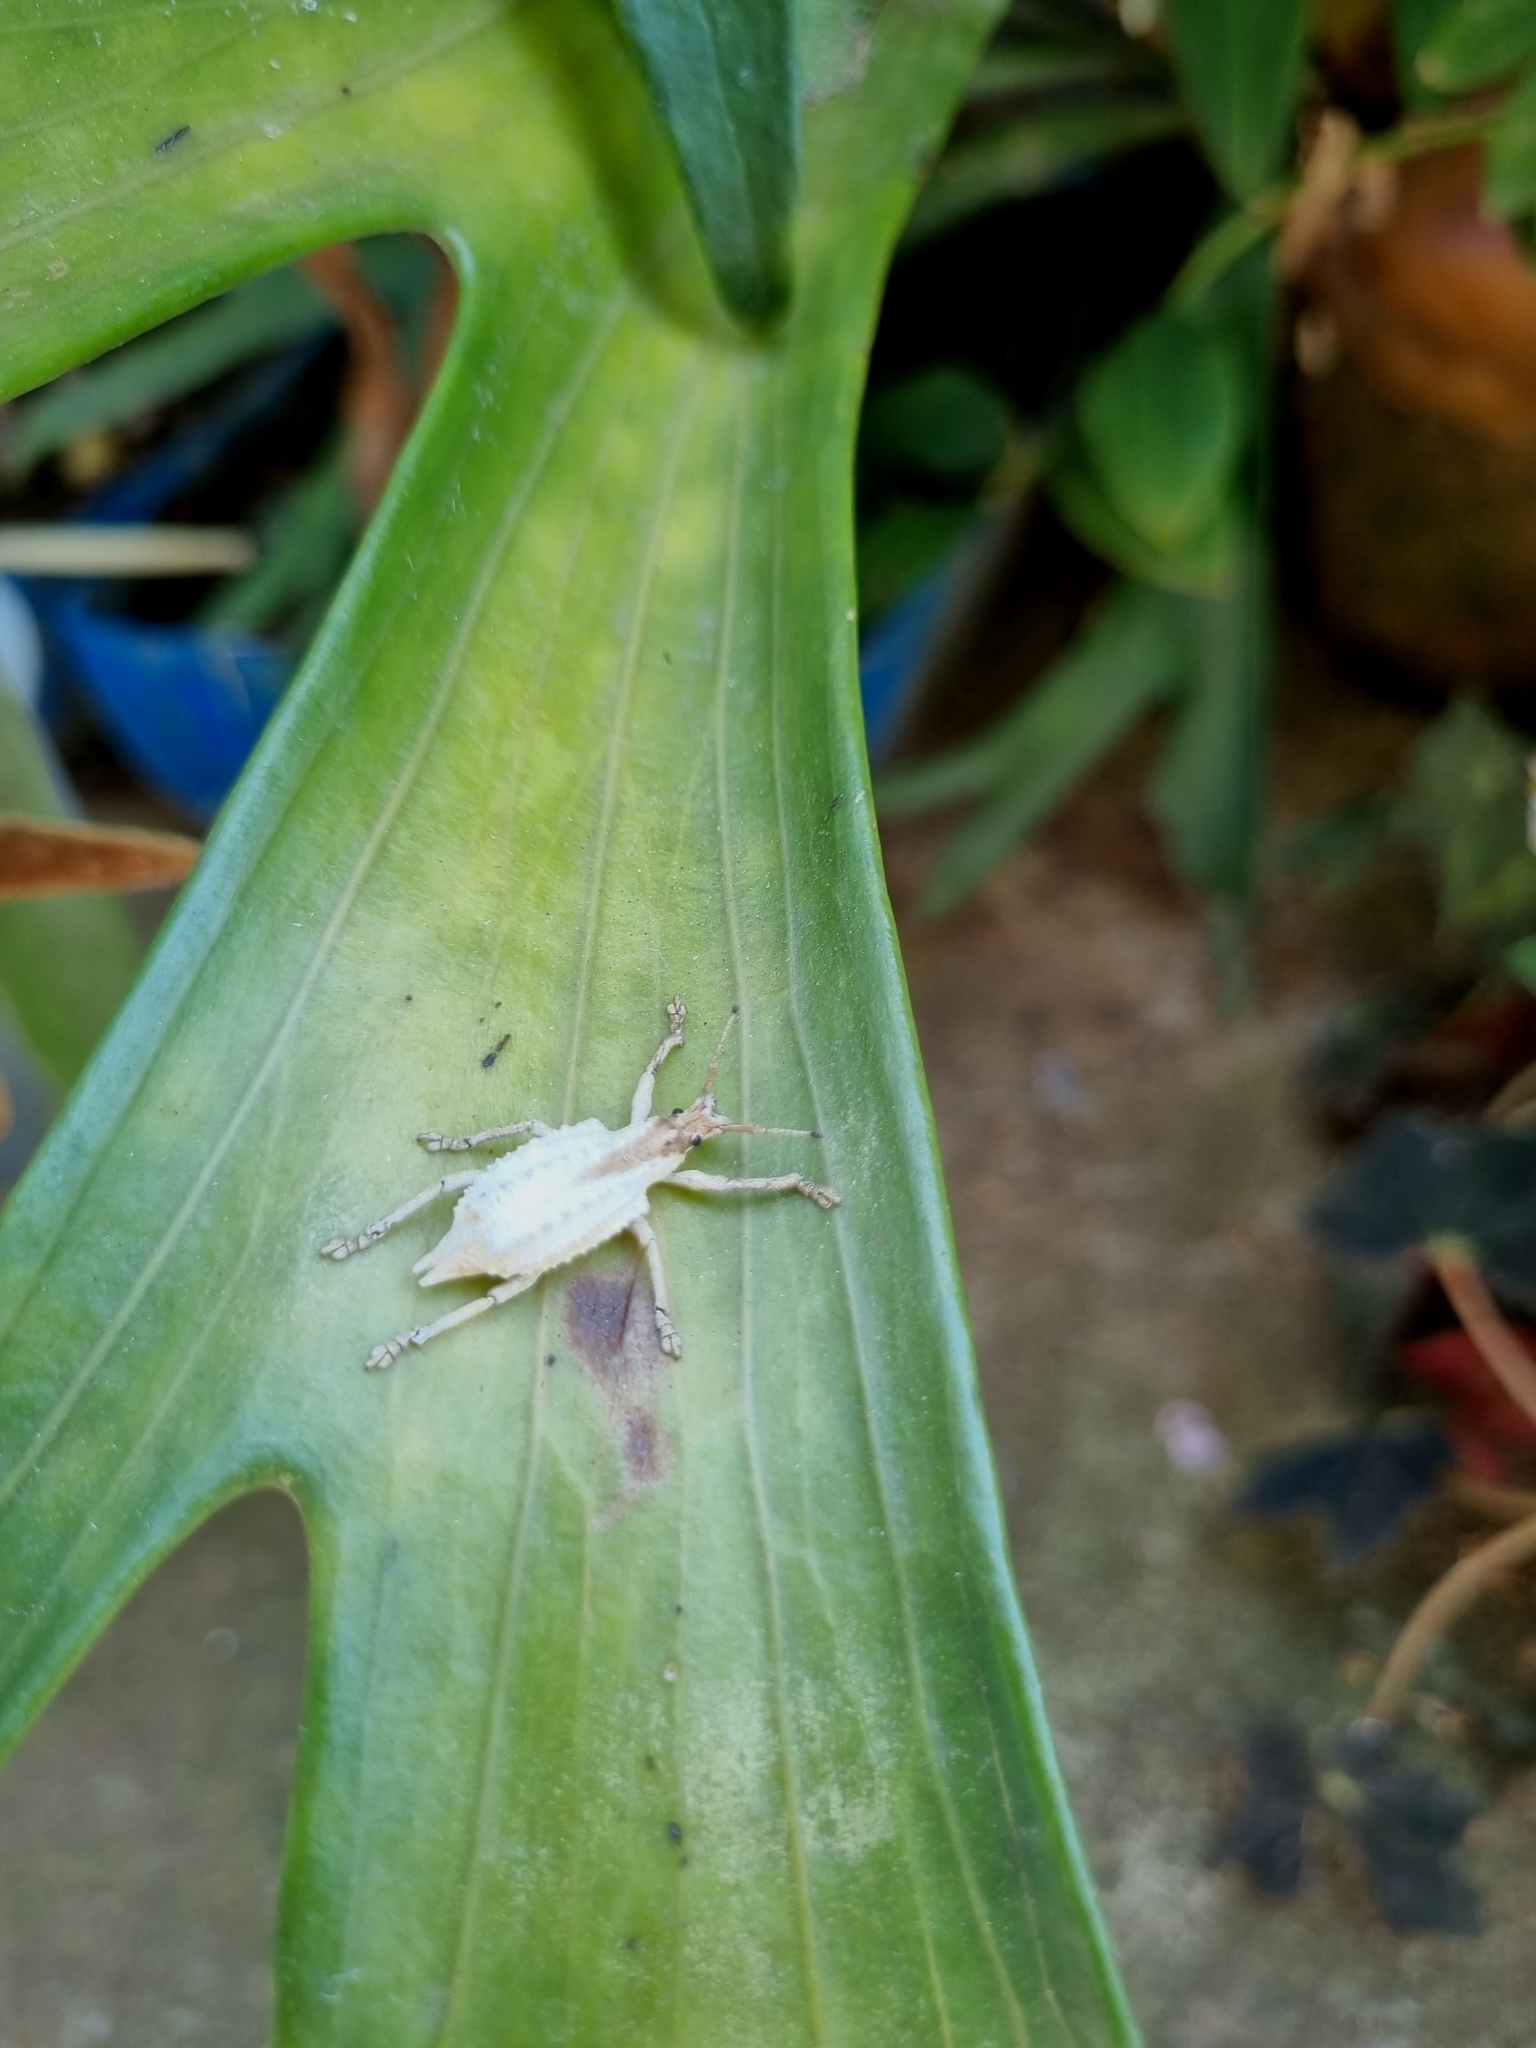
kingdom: Animalia
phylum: Arthropoda
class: Insecta
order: Coleoptera
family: Curculionidae
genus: Compsus
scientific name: Compsus niveus
